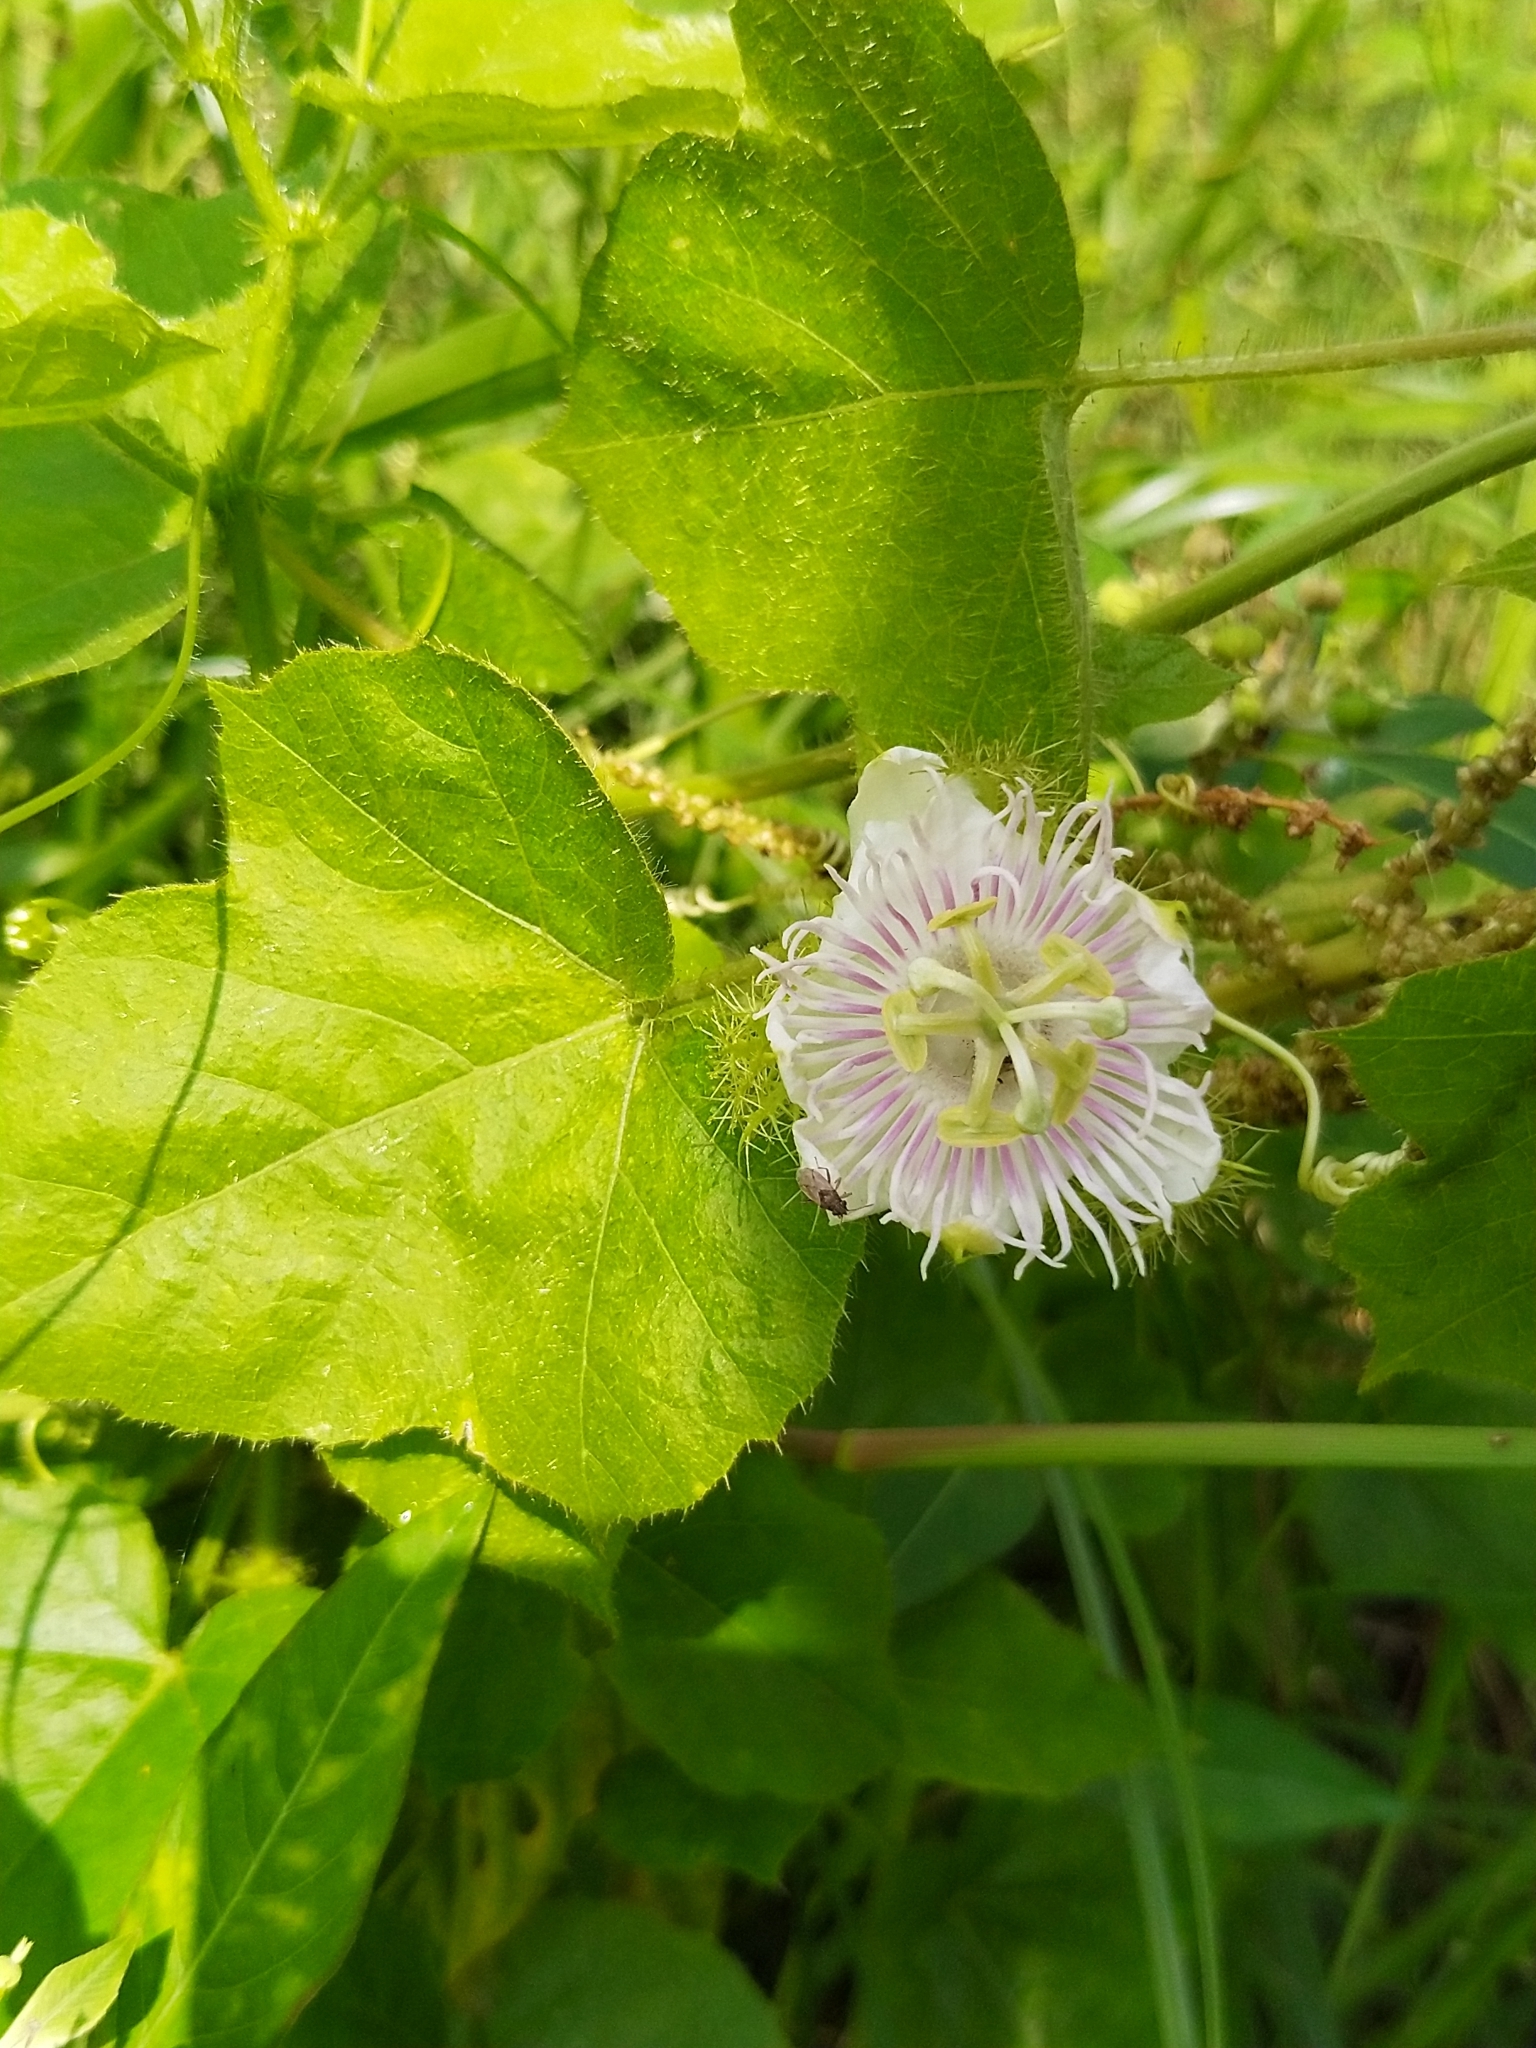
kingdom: Plantae
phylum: Tracheophyta
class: Magnoliopsida
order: Malpighiales
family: Passifloraceae
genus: Passiflora
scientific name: Passiflora foetida
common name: Fetid passionflower
